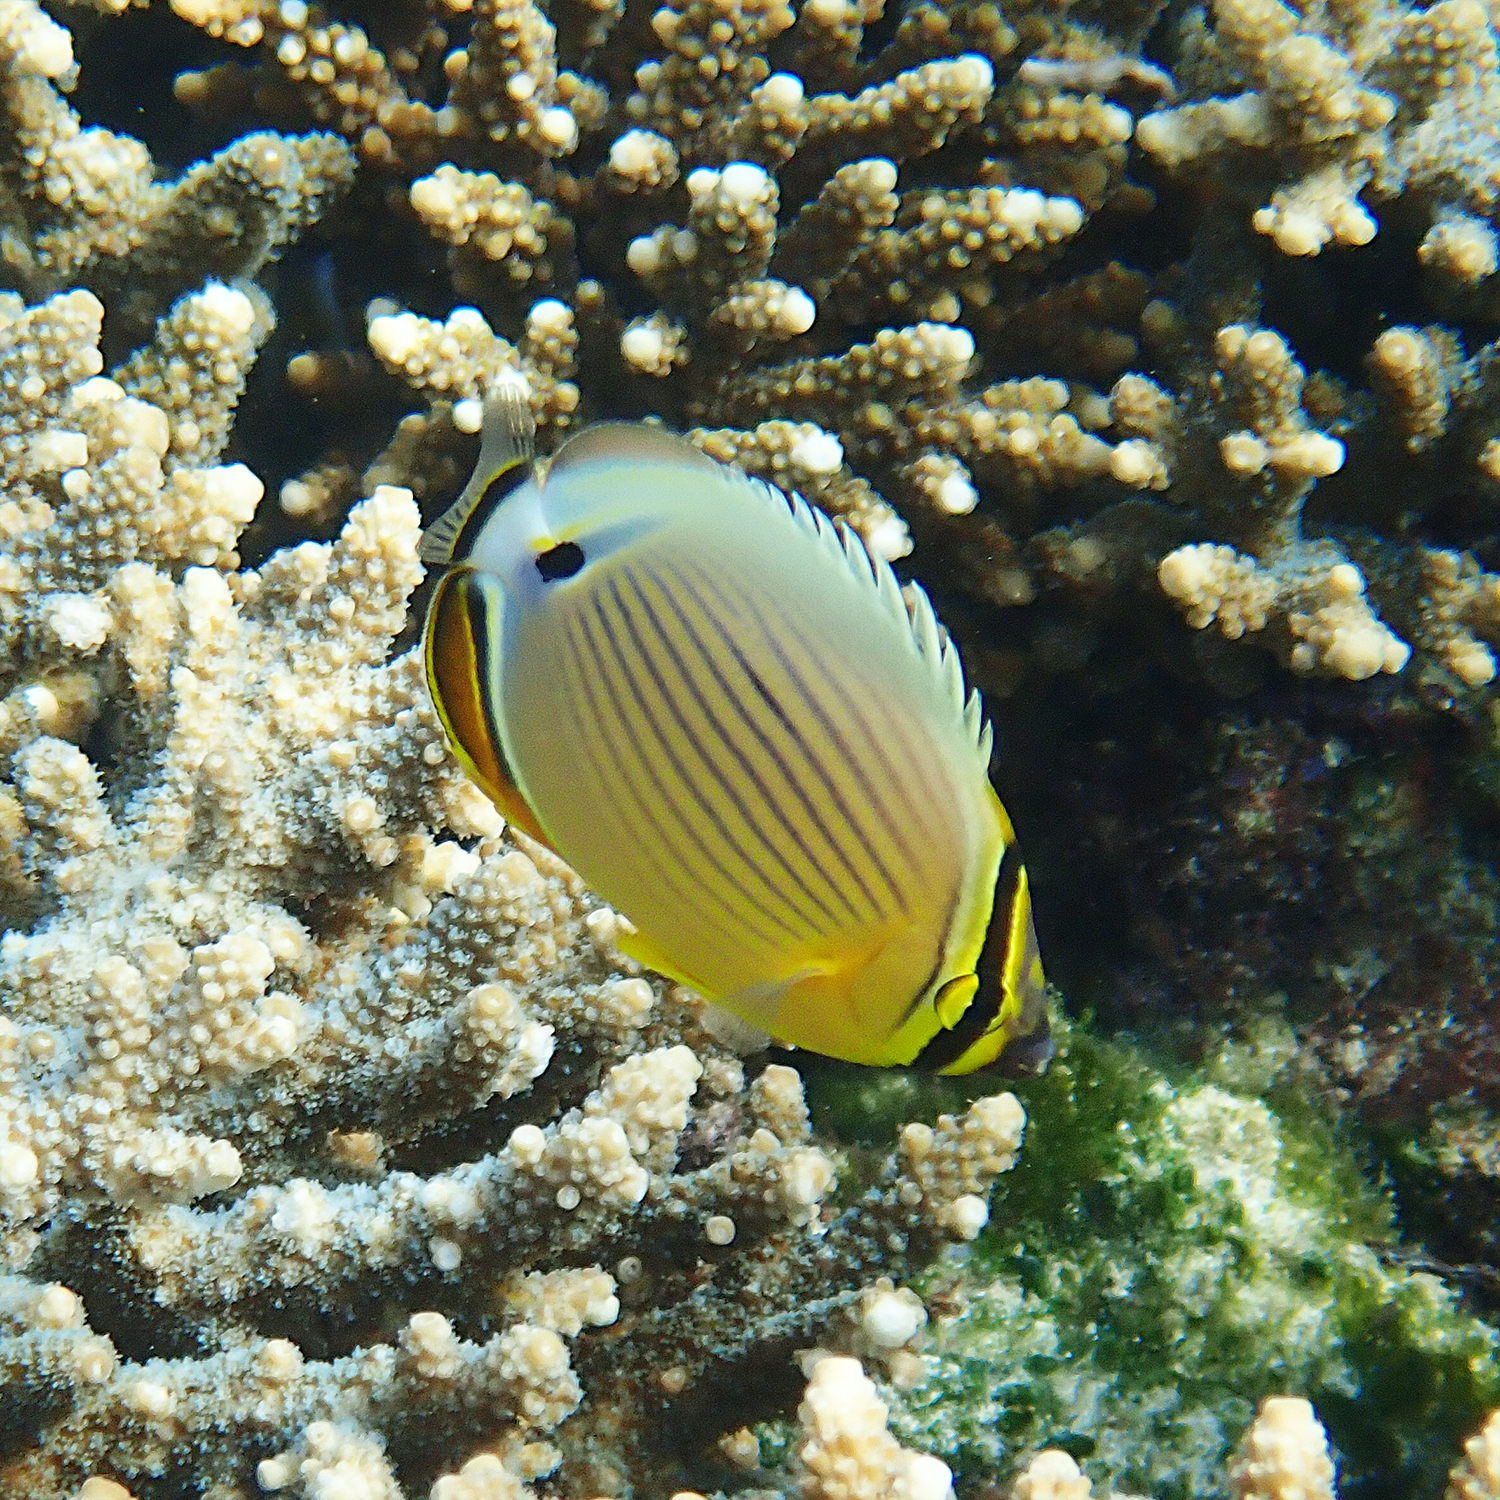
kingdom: Animalia
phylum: Chordata
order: Perciformes
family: Chaetodontidae
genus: Chaetodon
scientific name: Chaetodon lunulatus
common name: Redfin butterflyfish
